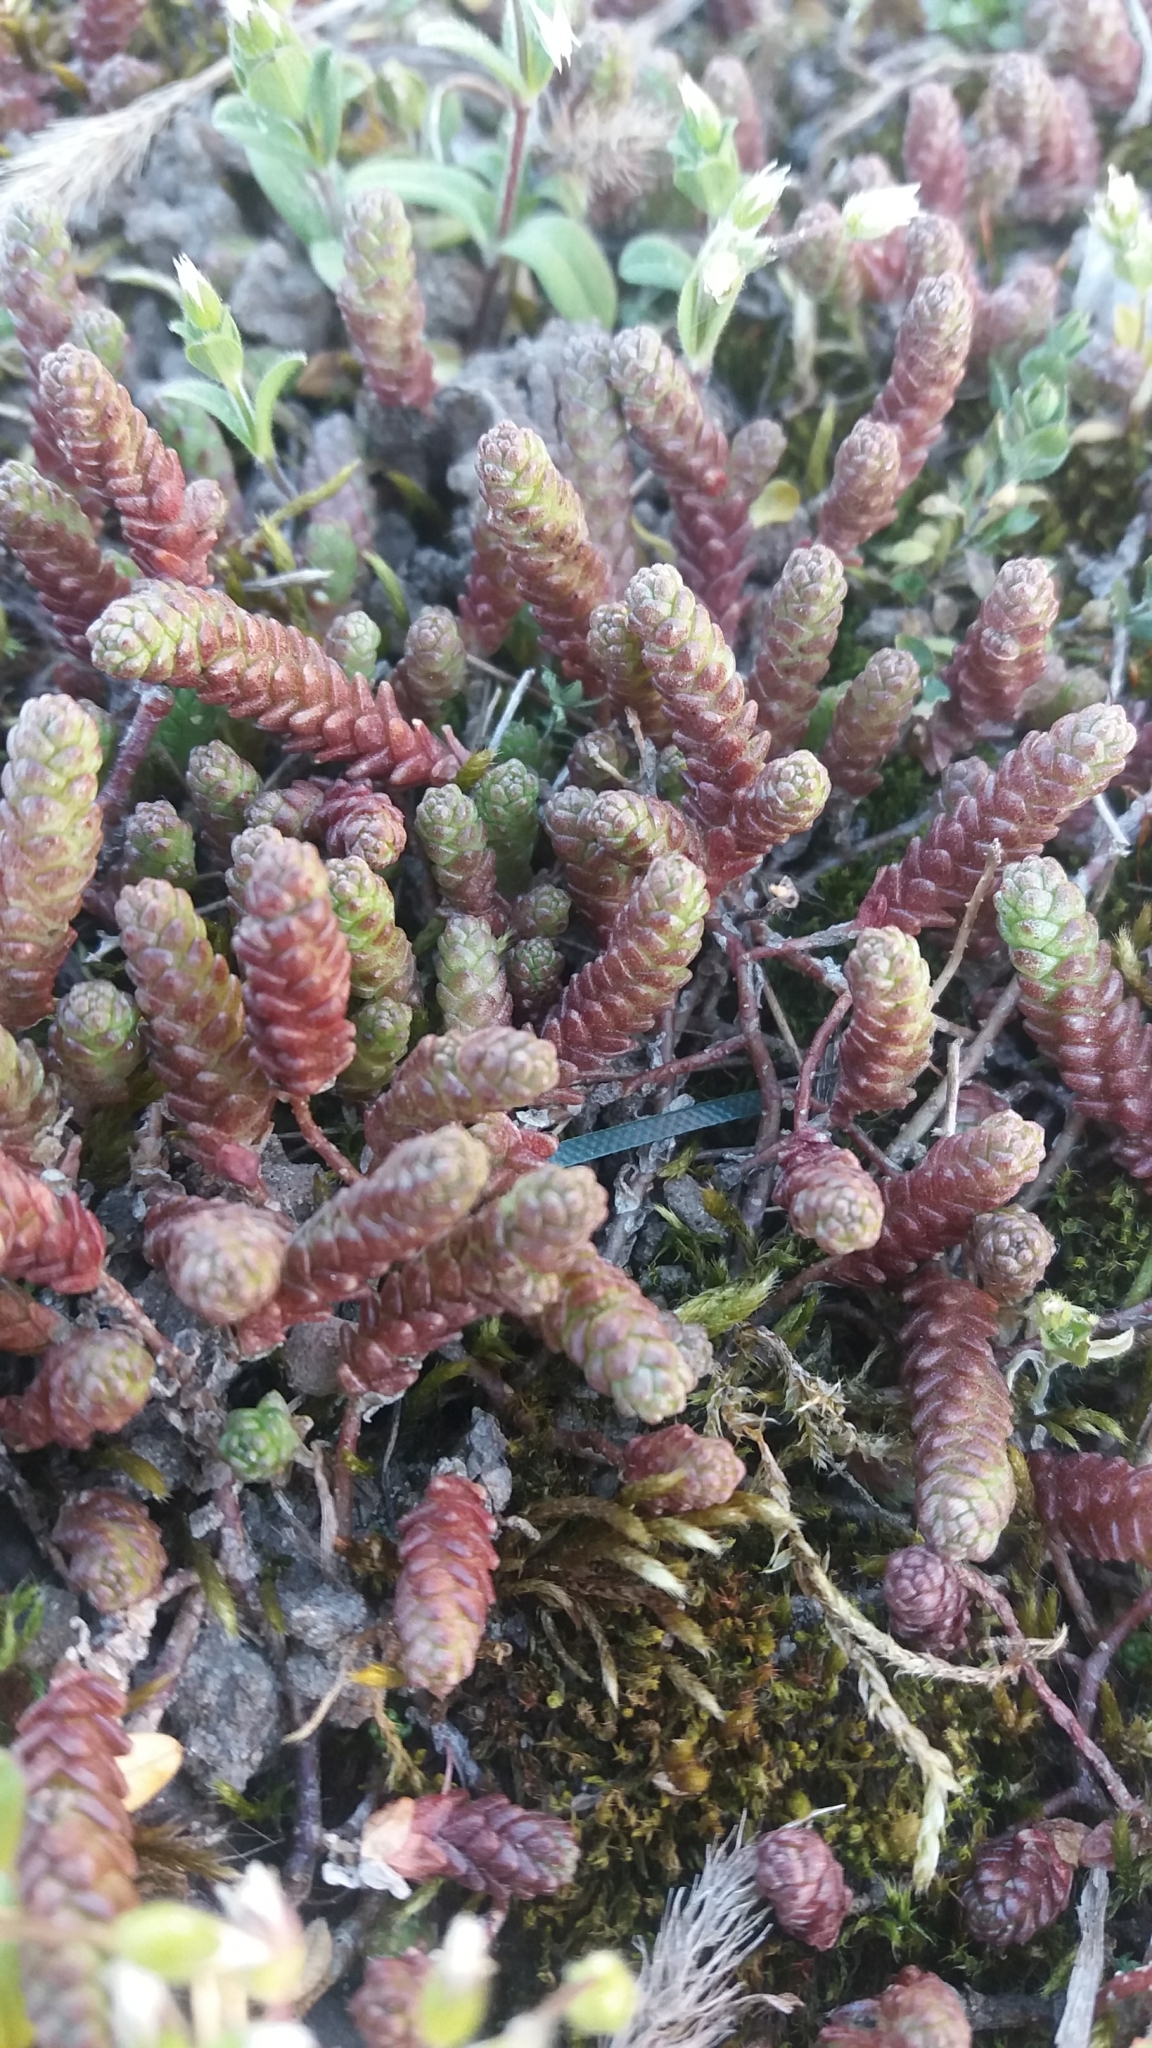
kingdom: Plantae
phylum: Tracheophyta
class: Magnoliopsida
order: Saxifragales
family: Crassulaceae
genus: Sedum
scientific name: Sedum sexangulare
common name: Tasteless stonecrop
